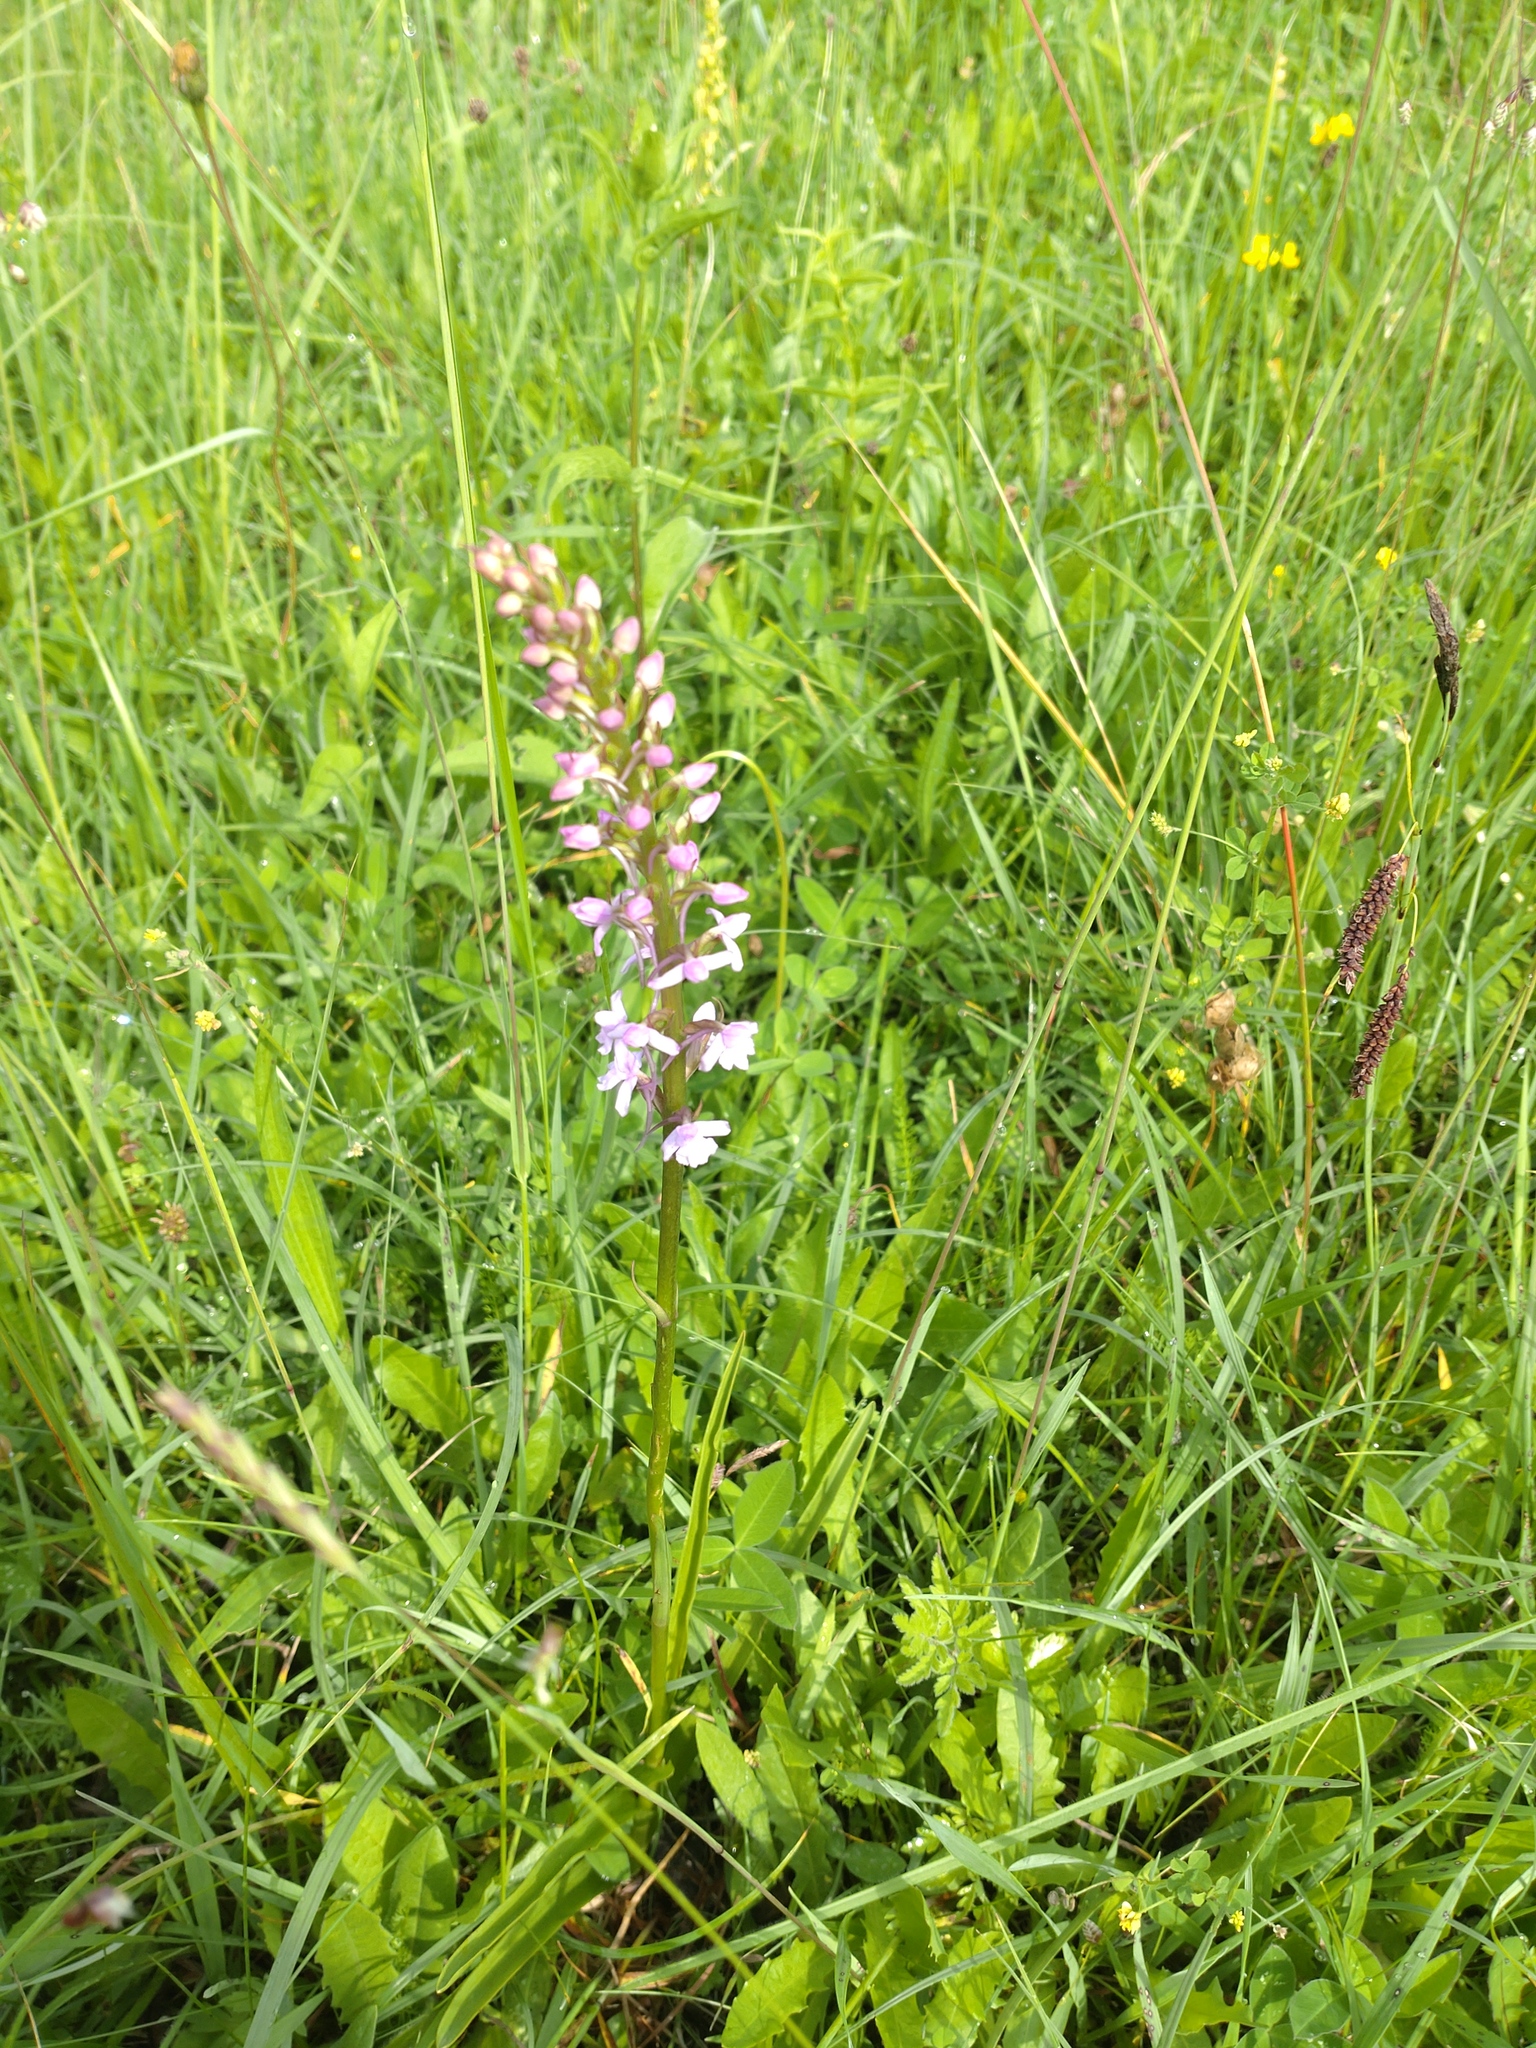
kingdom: Plantae
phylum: Tracheophyta
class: Liliopsida
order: Asparagales
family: Orchidaceae
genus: Gymnadenia
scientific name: Gymnadenia conopsea
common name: Fragrant orchid
